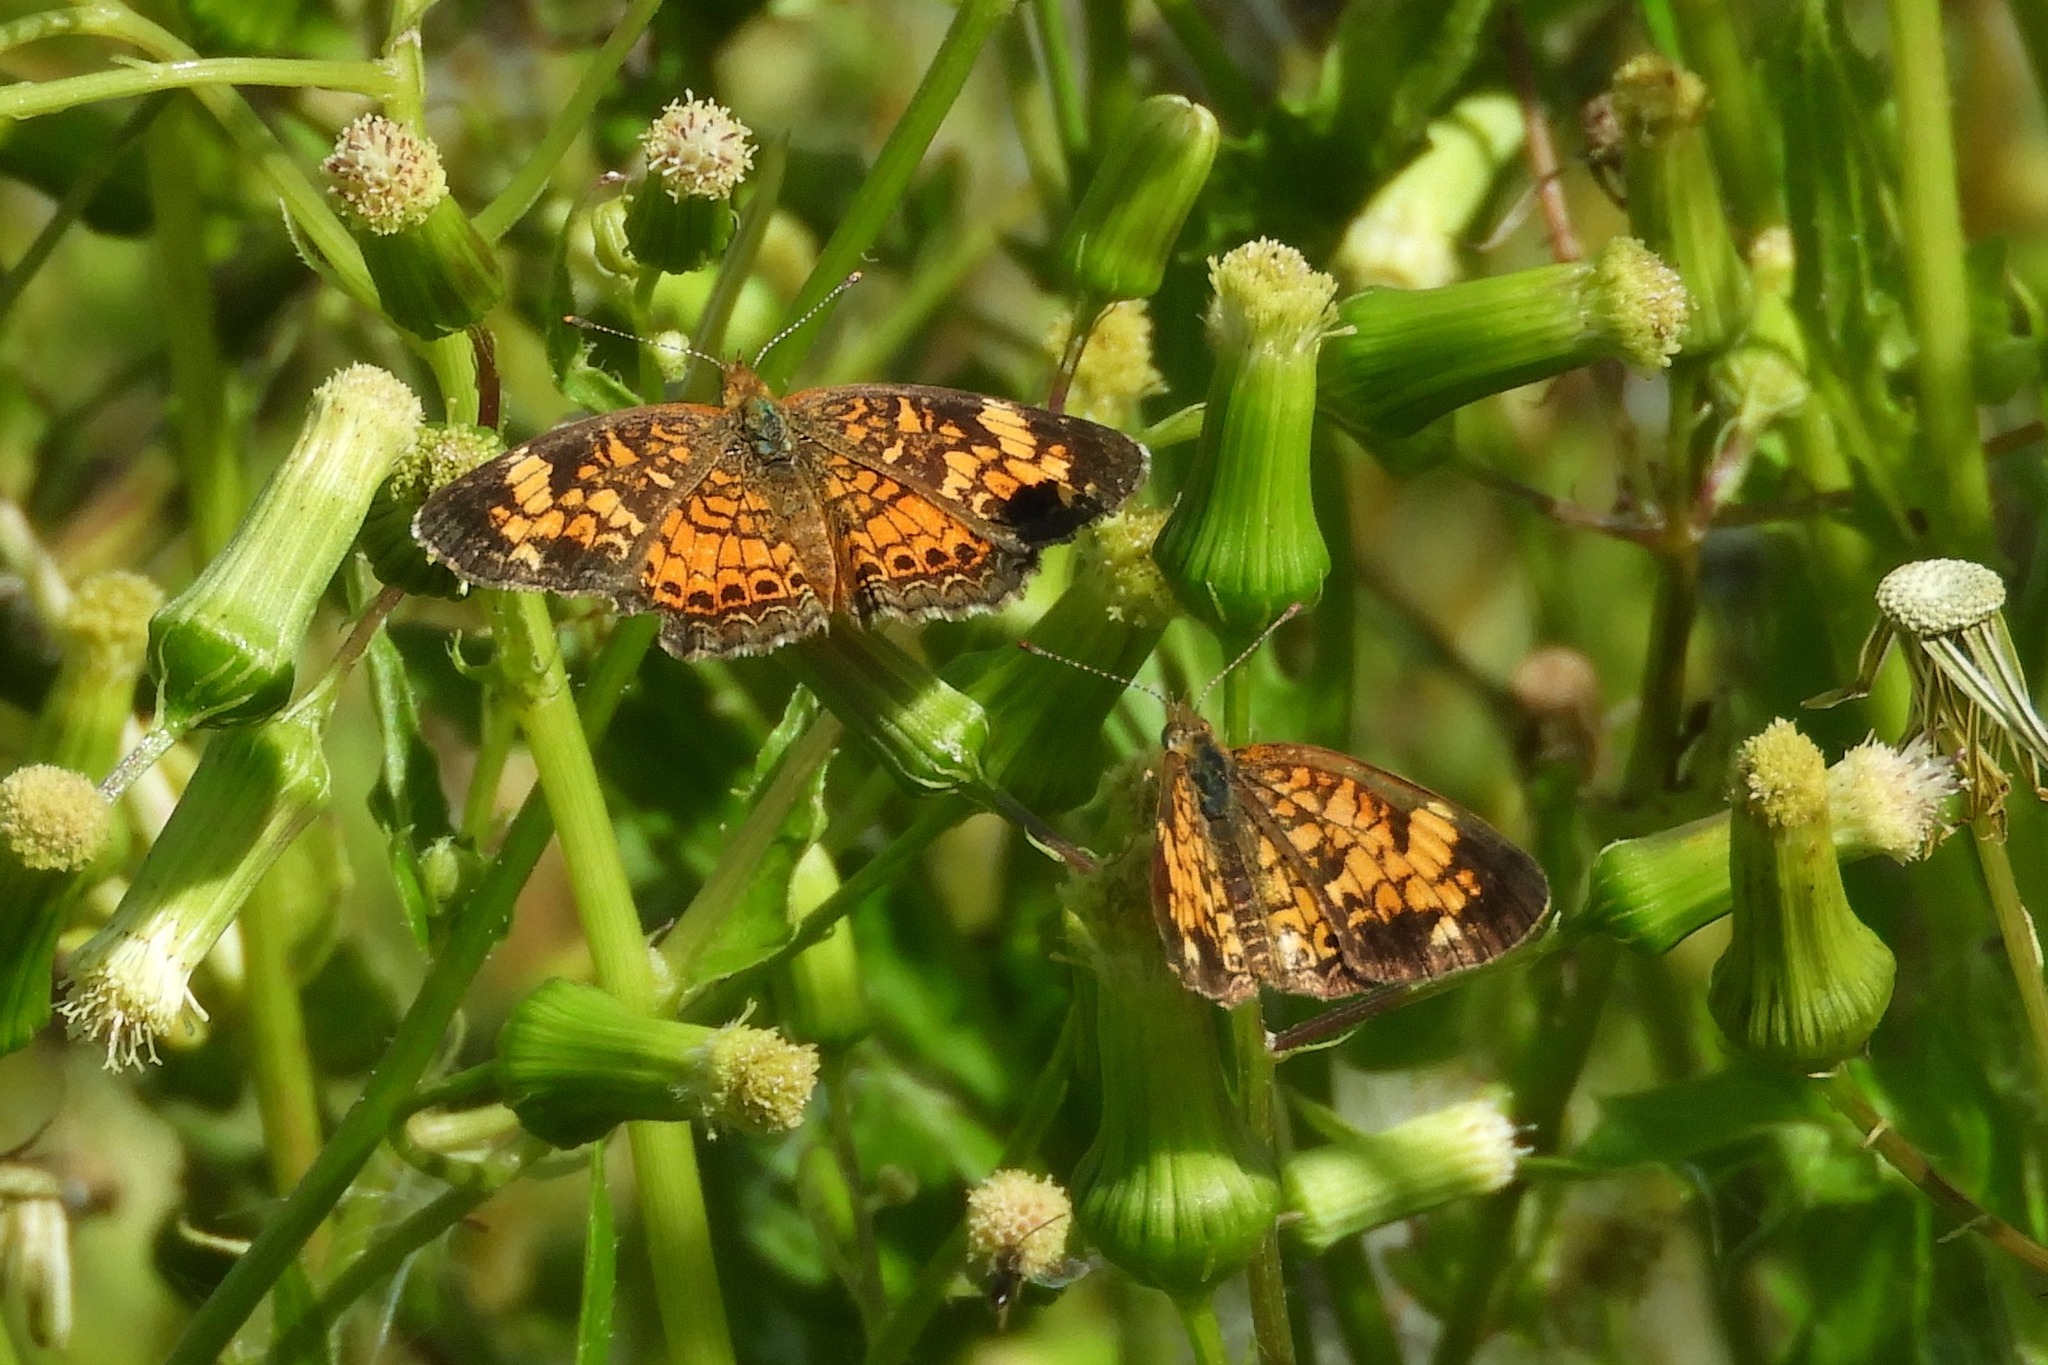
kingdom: Animalia
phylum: Arthropoda
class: Insecta
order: Lepidoptera
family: Nymphalidae
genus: Phyciodes
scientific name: Phyciodes tharos
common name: Pearl crescent
